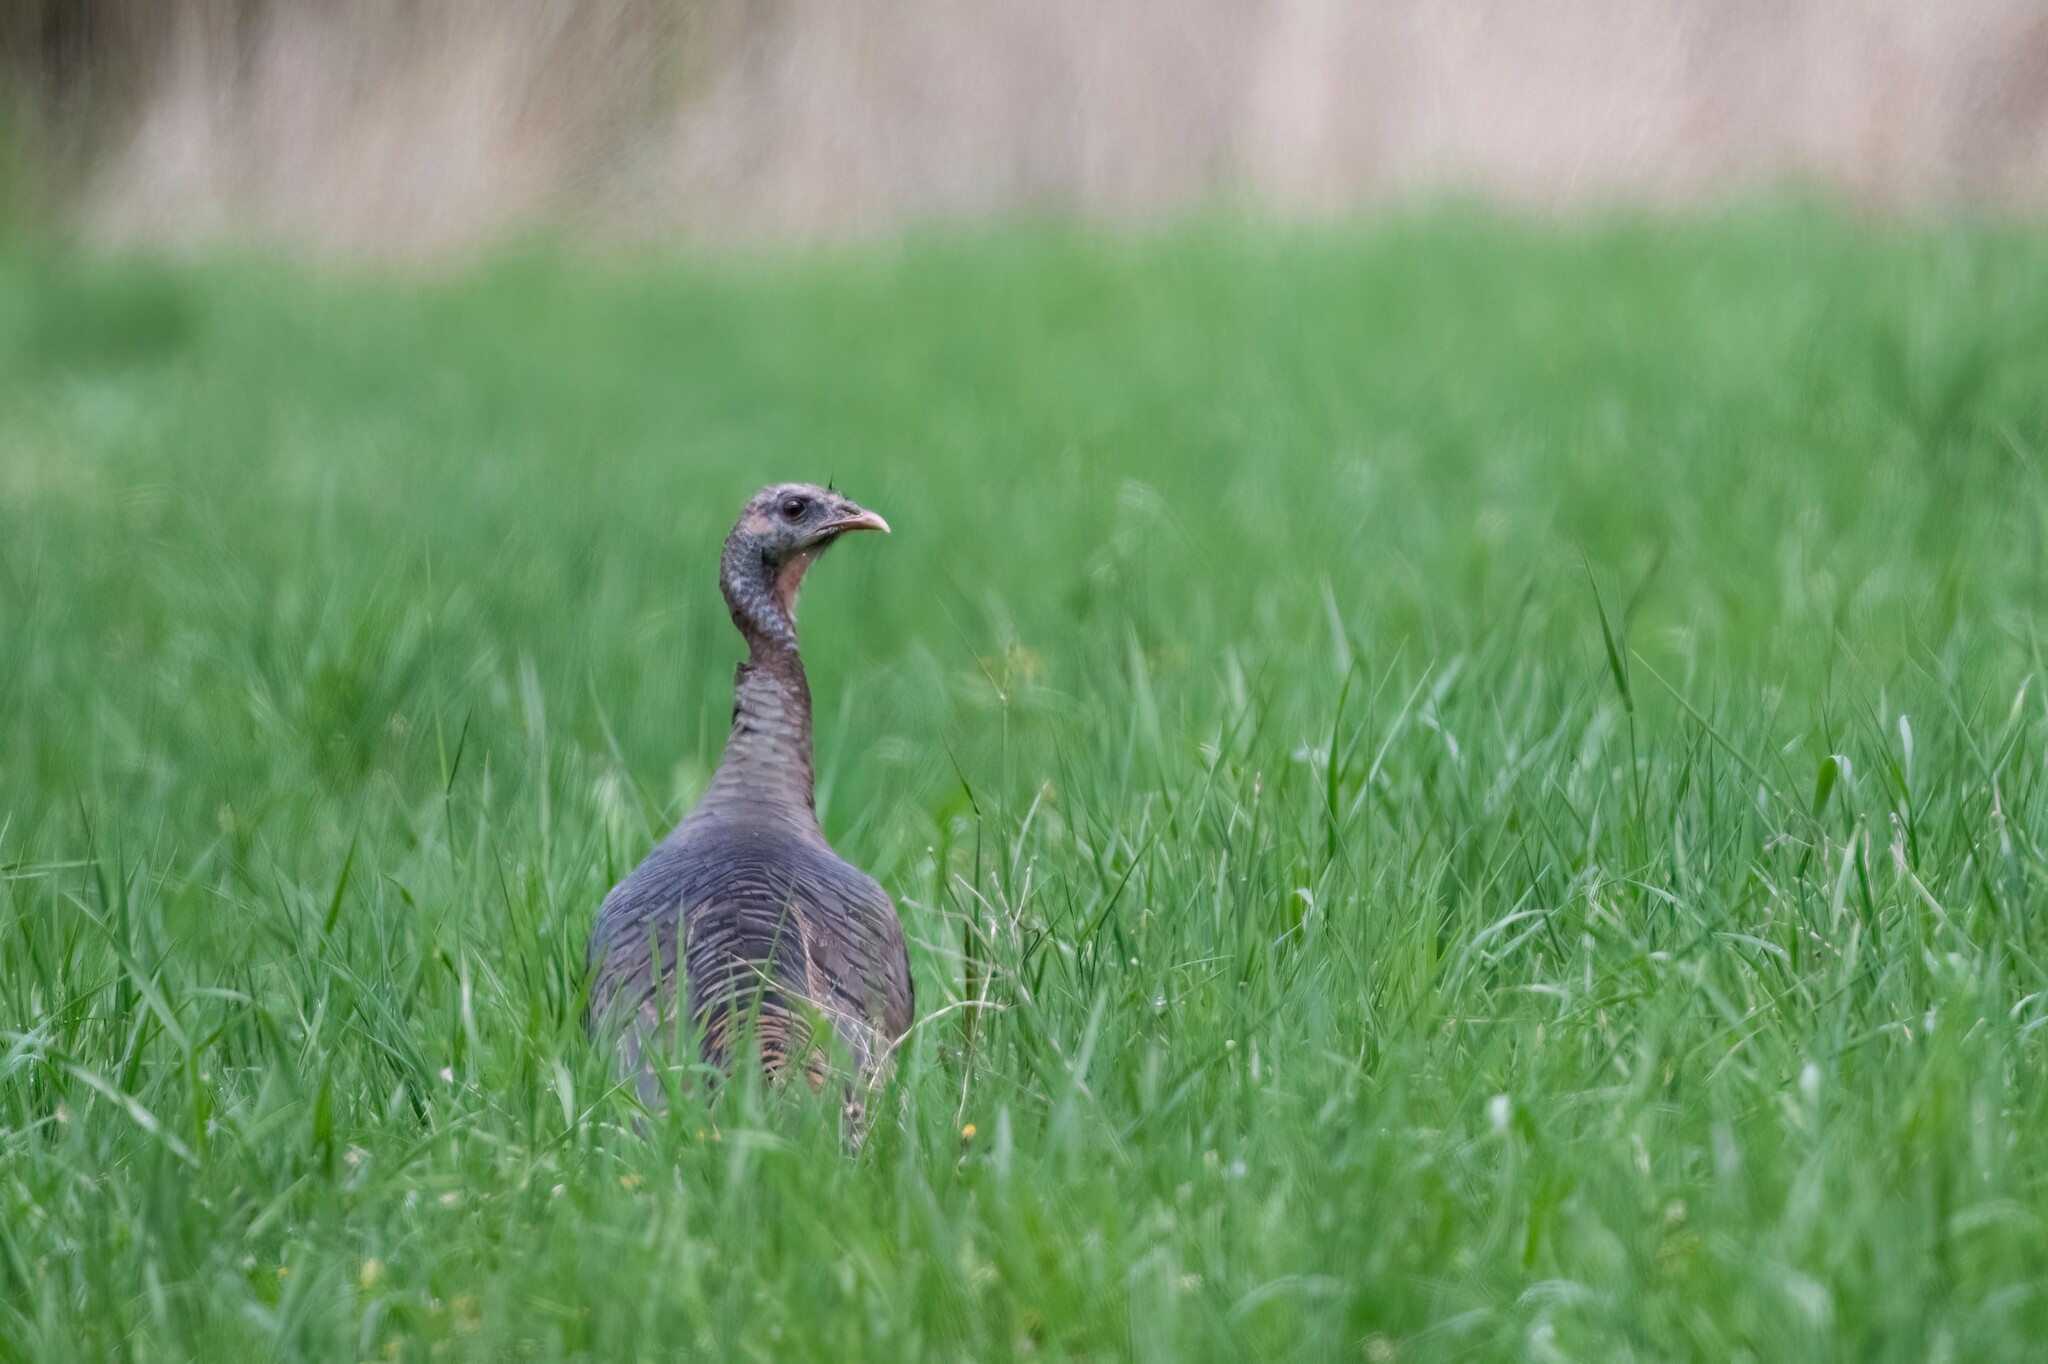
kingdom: Animalia
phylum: Chordata
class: Aves
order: Galliformes
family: Phasianidae
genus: Meleagris
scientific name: Meleagris gallopavo
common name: Wild turkey
